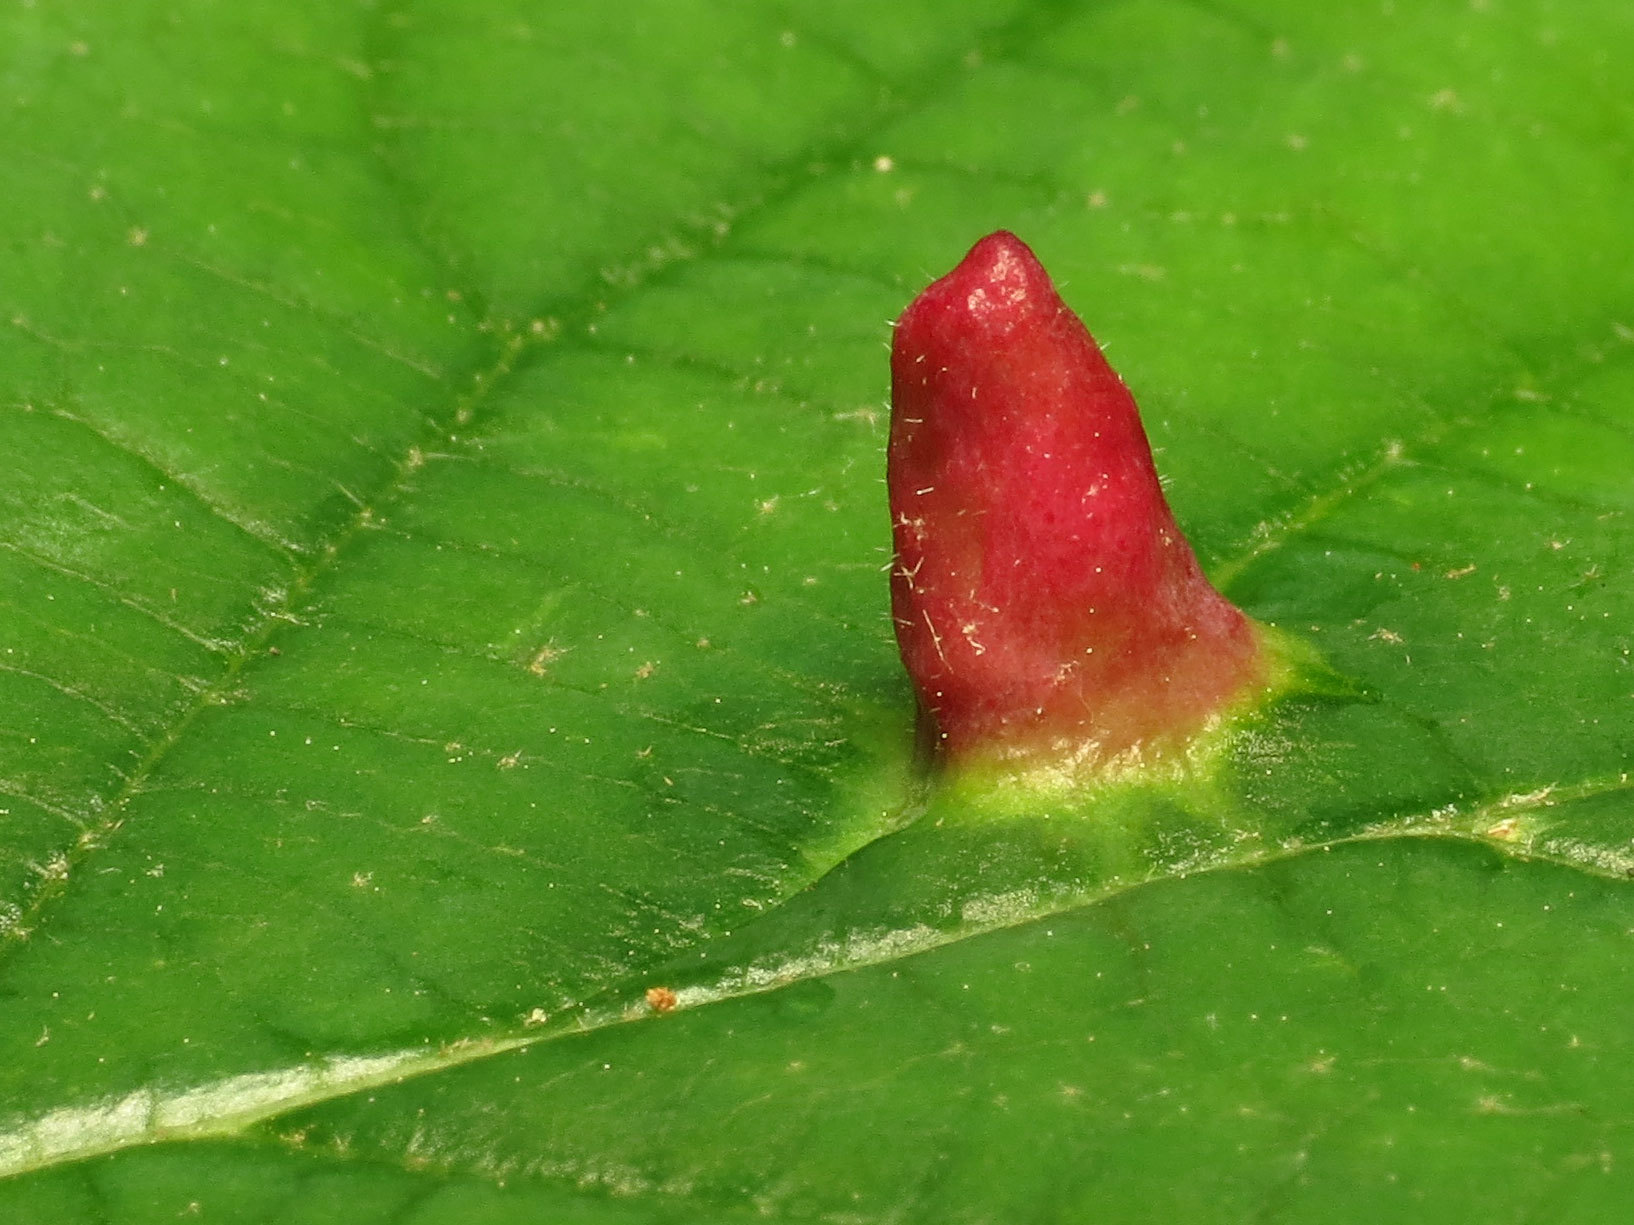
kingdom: Animalia
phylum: Arthropoda
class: Insecta
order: Hemiptera
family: Aphididae
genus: Hormaphis
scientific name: Hormaphis hamamelidis
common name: Witch-hazel cone gall aphid
